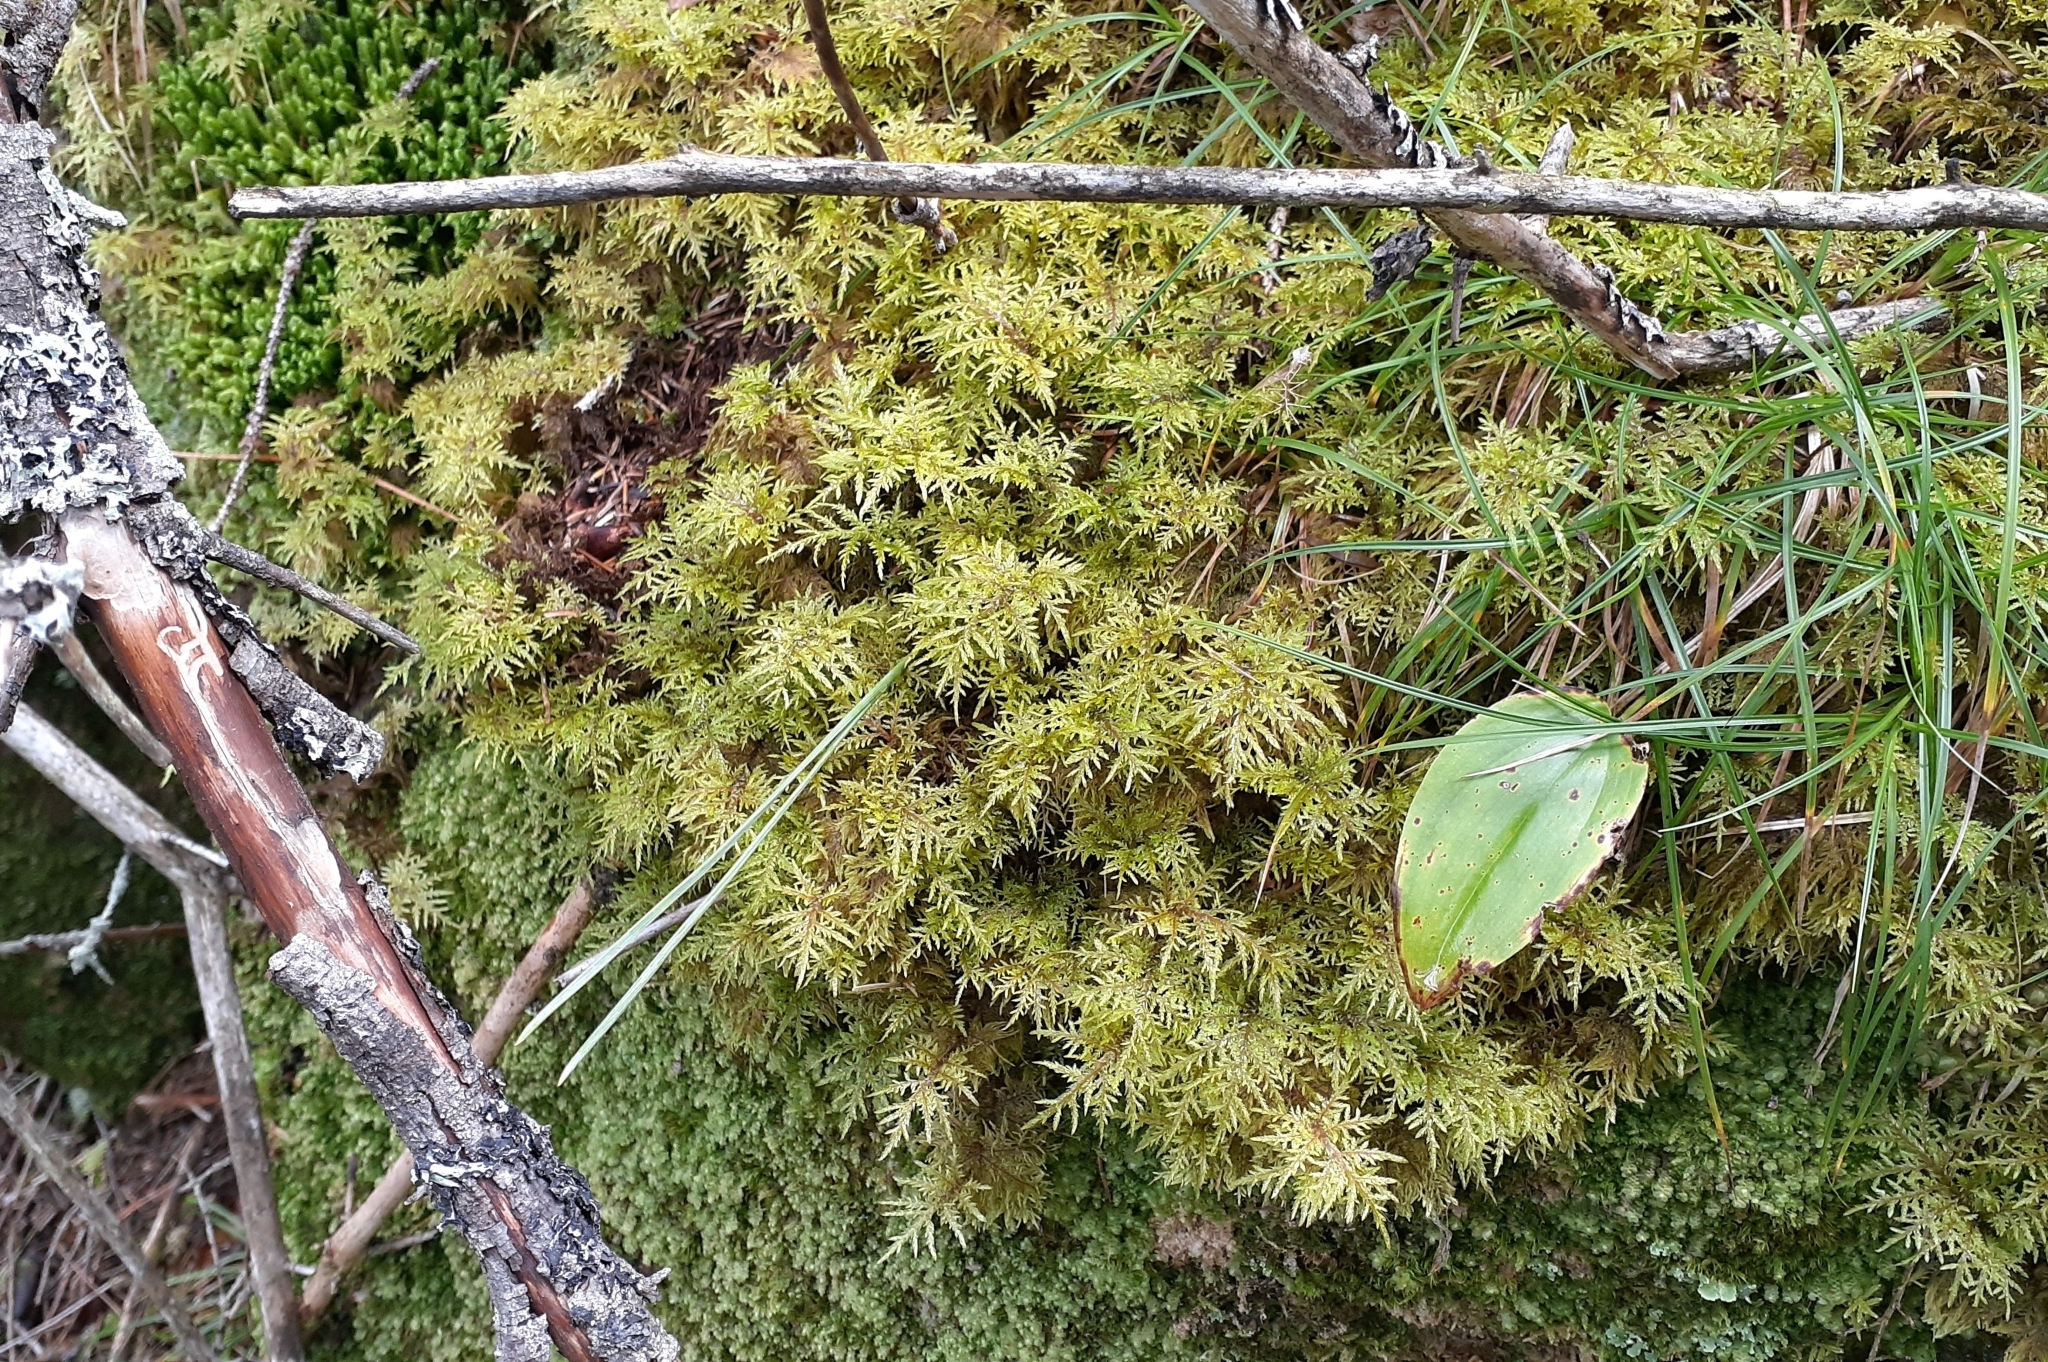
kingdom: Plantae
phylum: Bryophyta
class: Bryopsida
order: Hypnales
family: Hylocomiaceae
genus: Hylocomium
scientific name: Hylocomium splendens
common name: Stairstep moss
